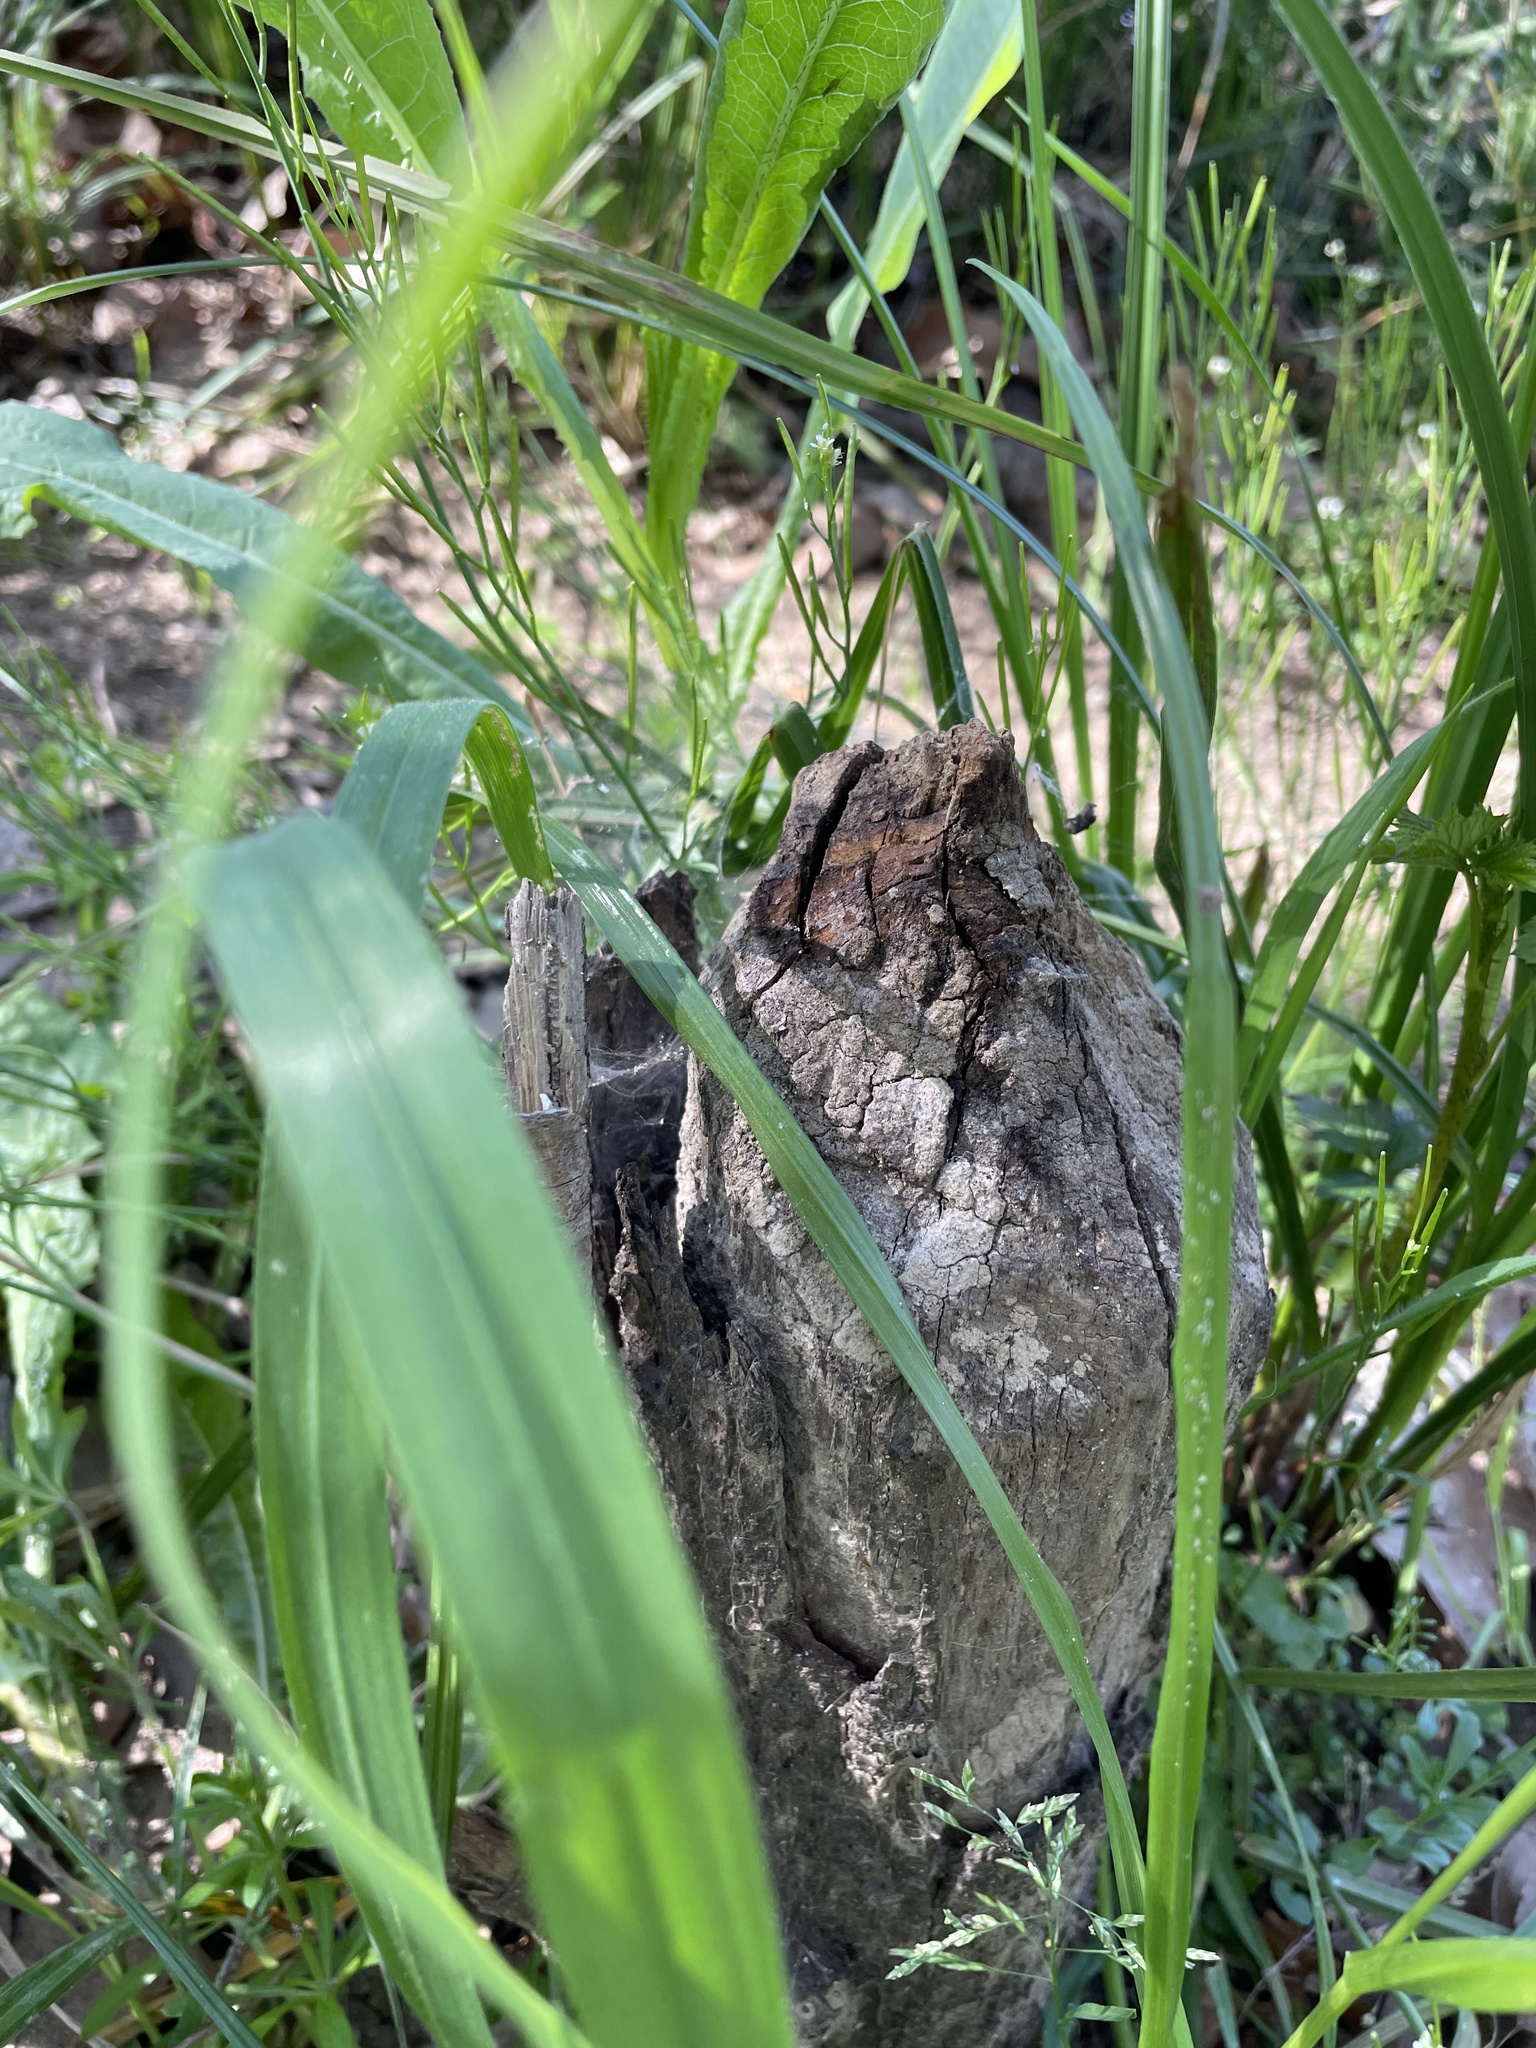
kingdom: Animalia
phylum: Chordata
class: Mammalia
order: Rodentia
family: Castoridae
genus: Castor
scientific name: Castor canadensis
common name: American beaver
